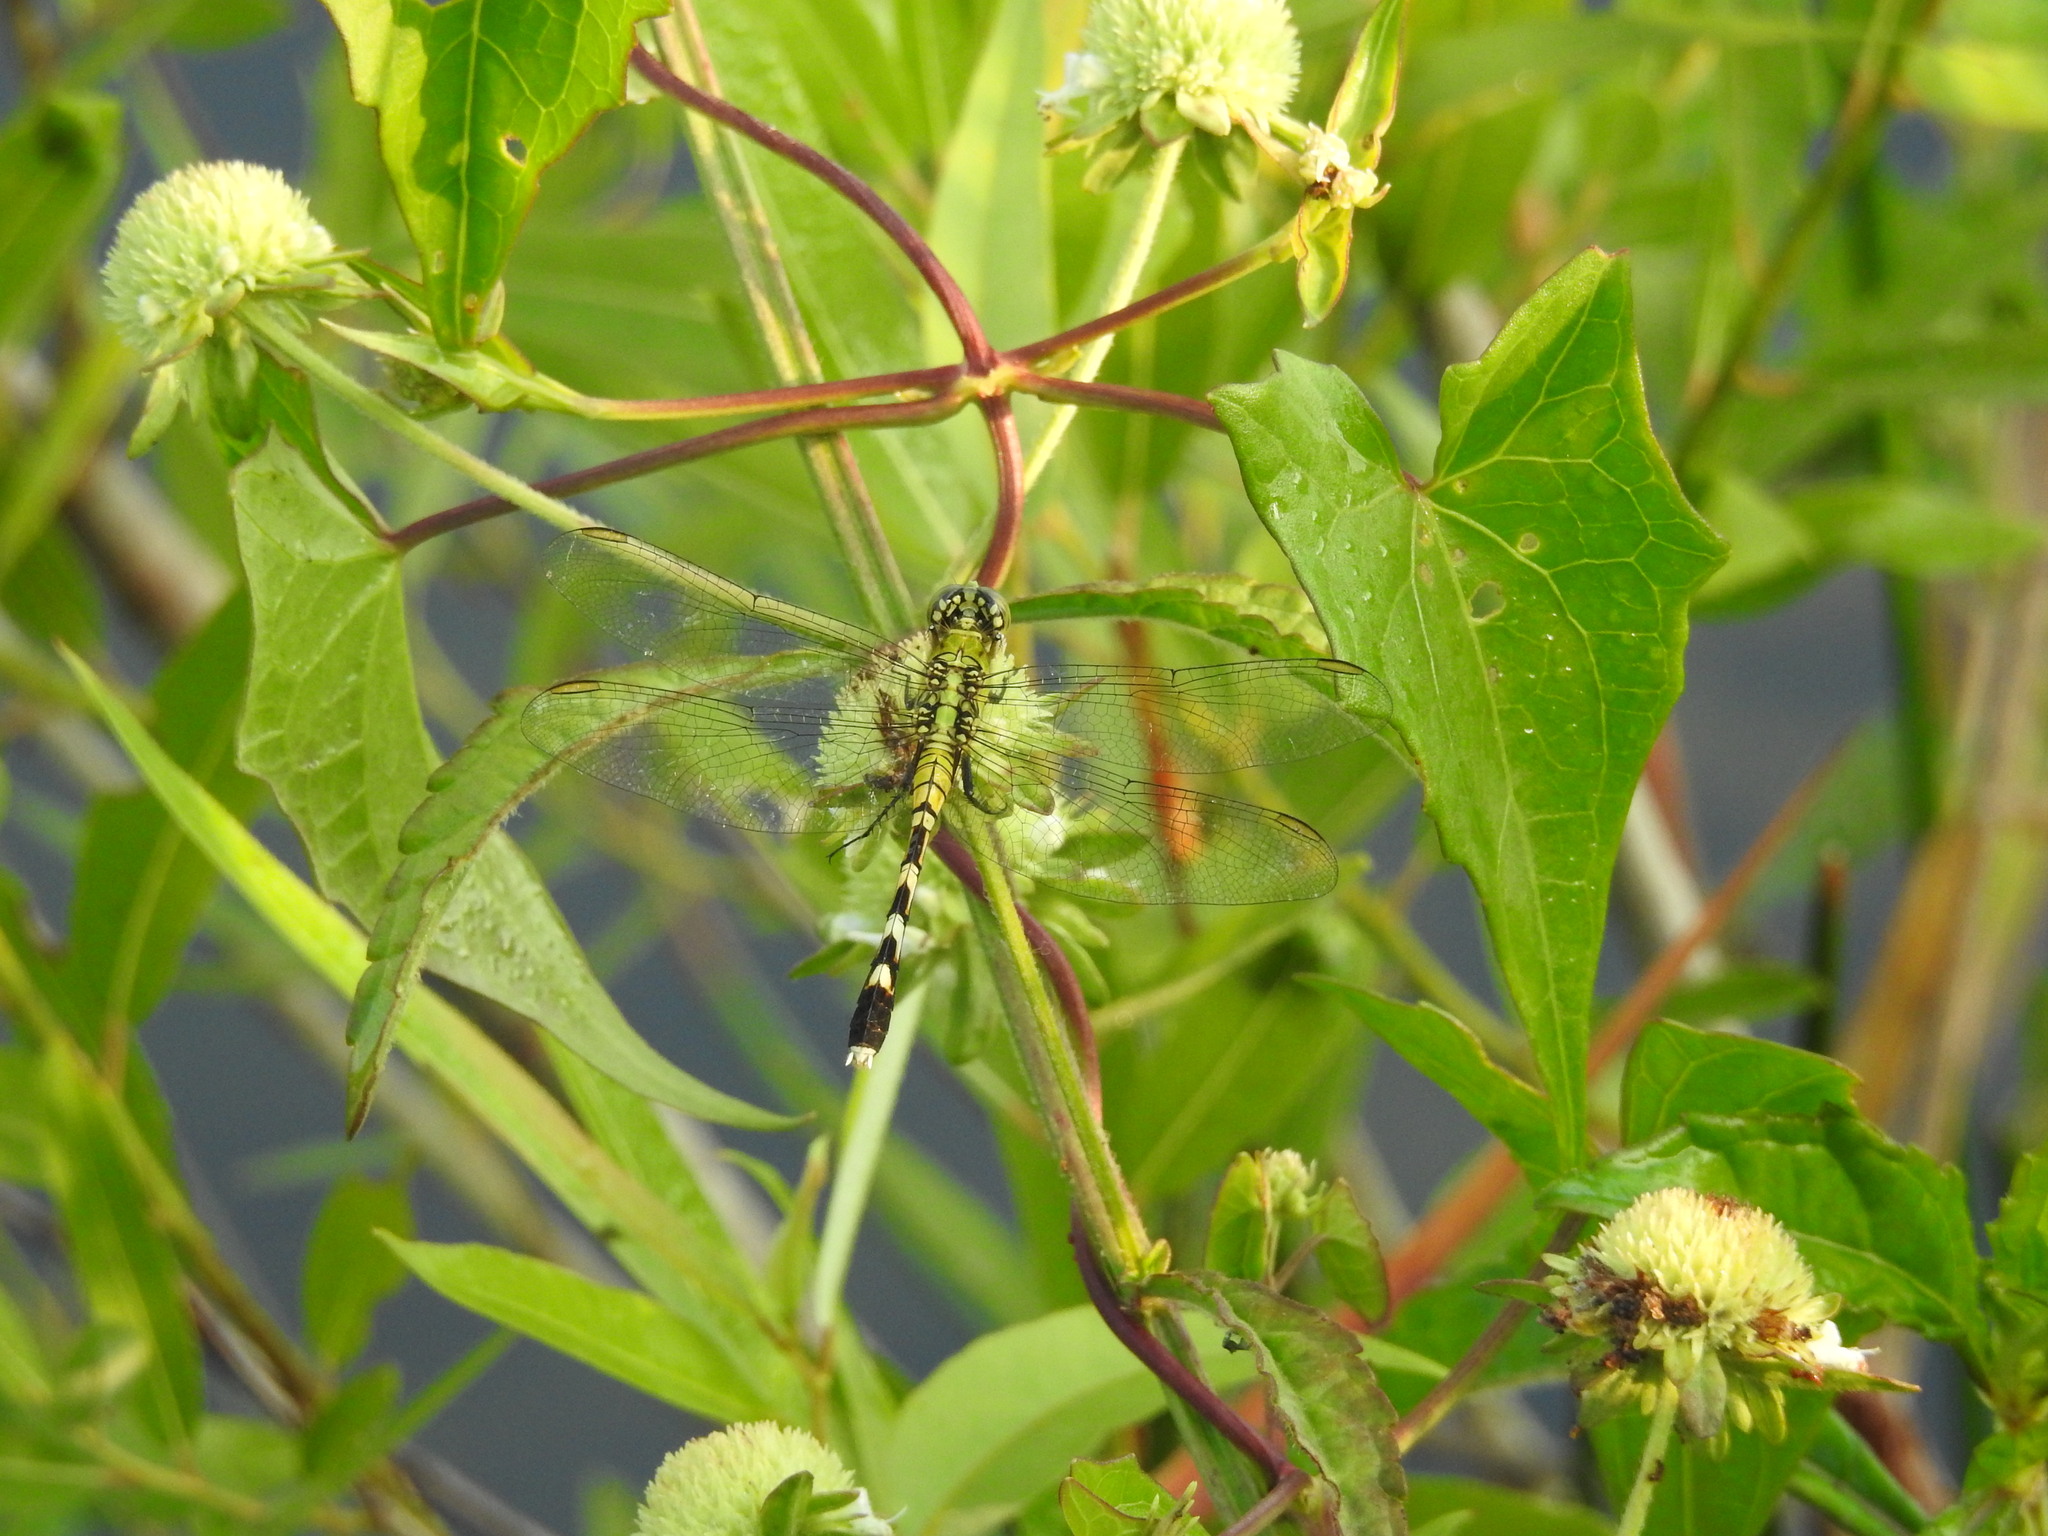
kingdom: Animalia
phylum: Arthropoda
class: Insecta
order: Odonata
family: Libellulidae
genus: Erythemis
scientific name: Erythemis simplicicollis
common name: Eastern pondhawk
